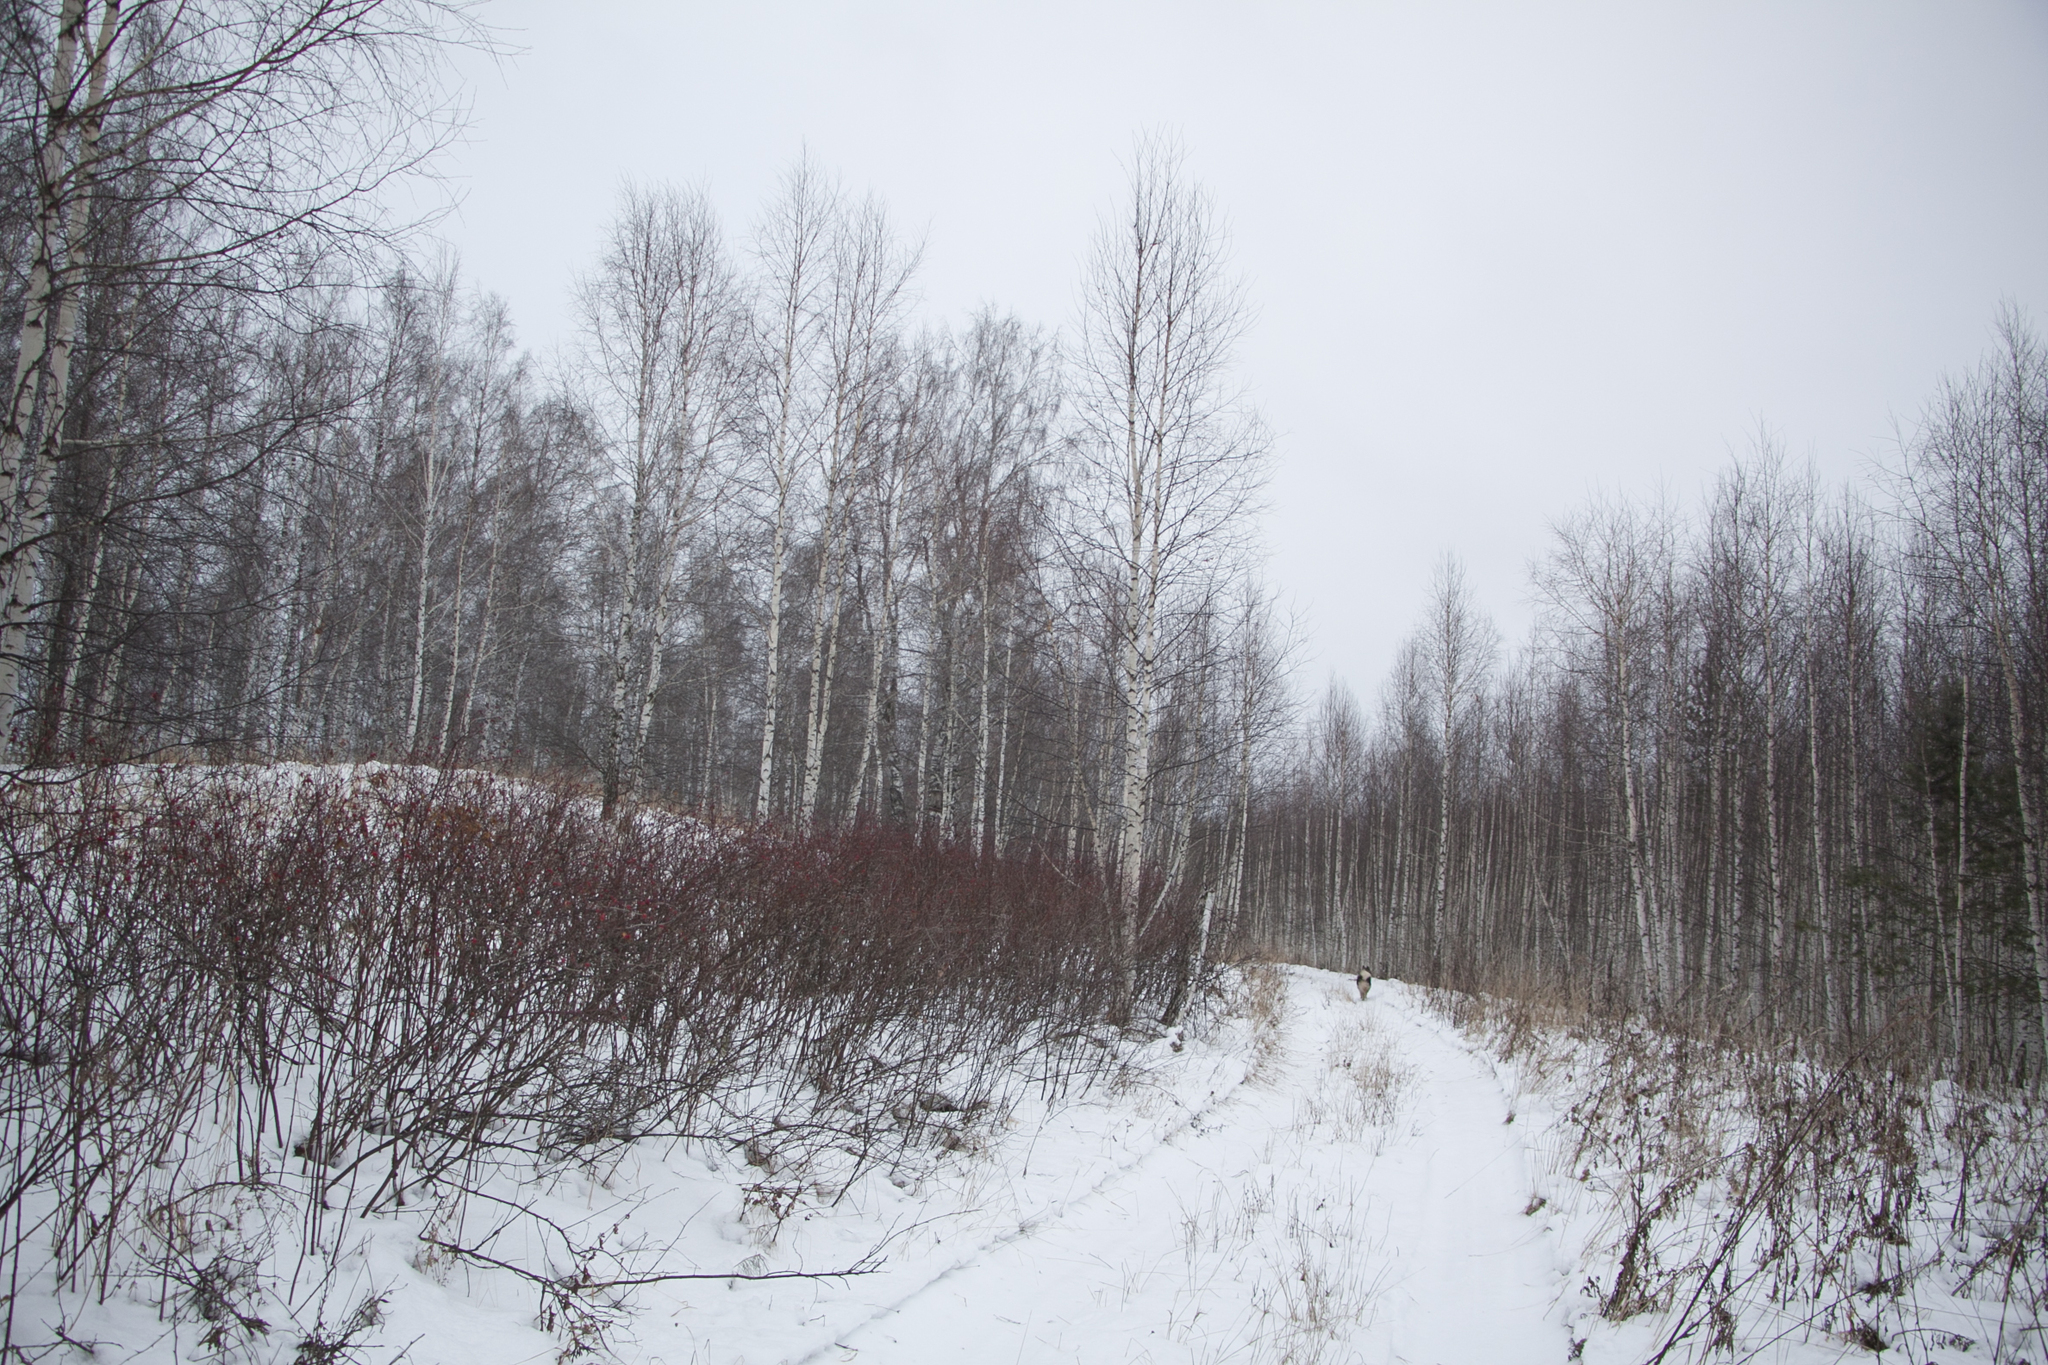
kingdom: Plantae
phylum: Tracheophyta
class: Magnoliopsida
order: Fagales
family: Betulaceae
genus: Betula
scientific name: Betula pendula
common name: Silver birch
